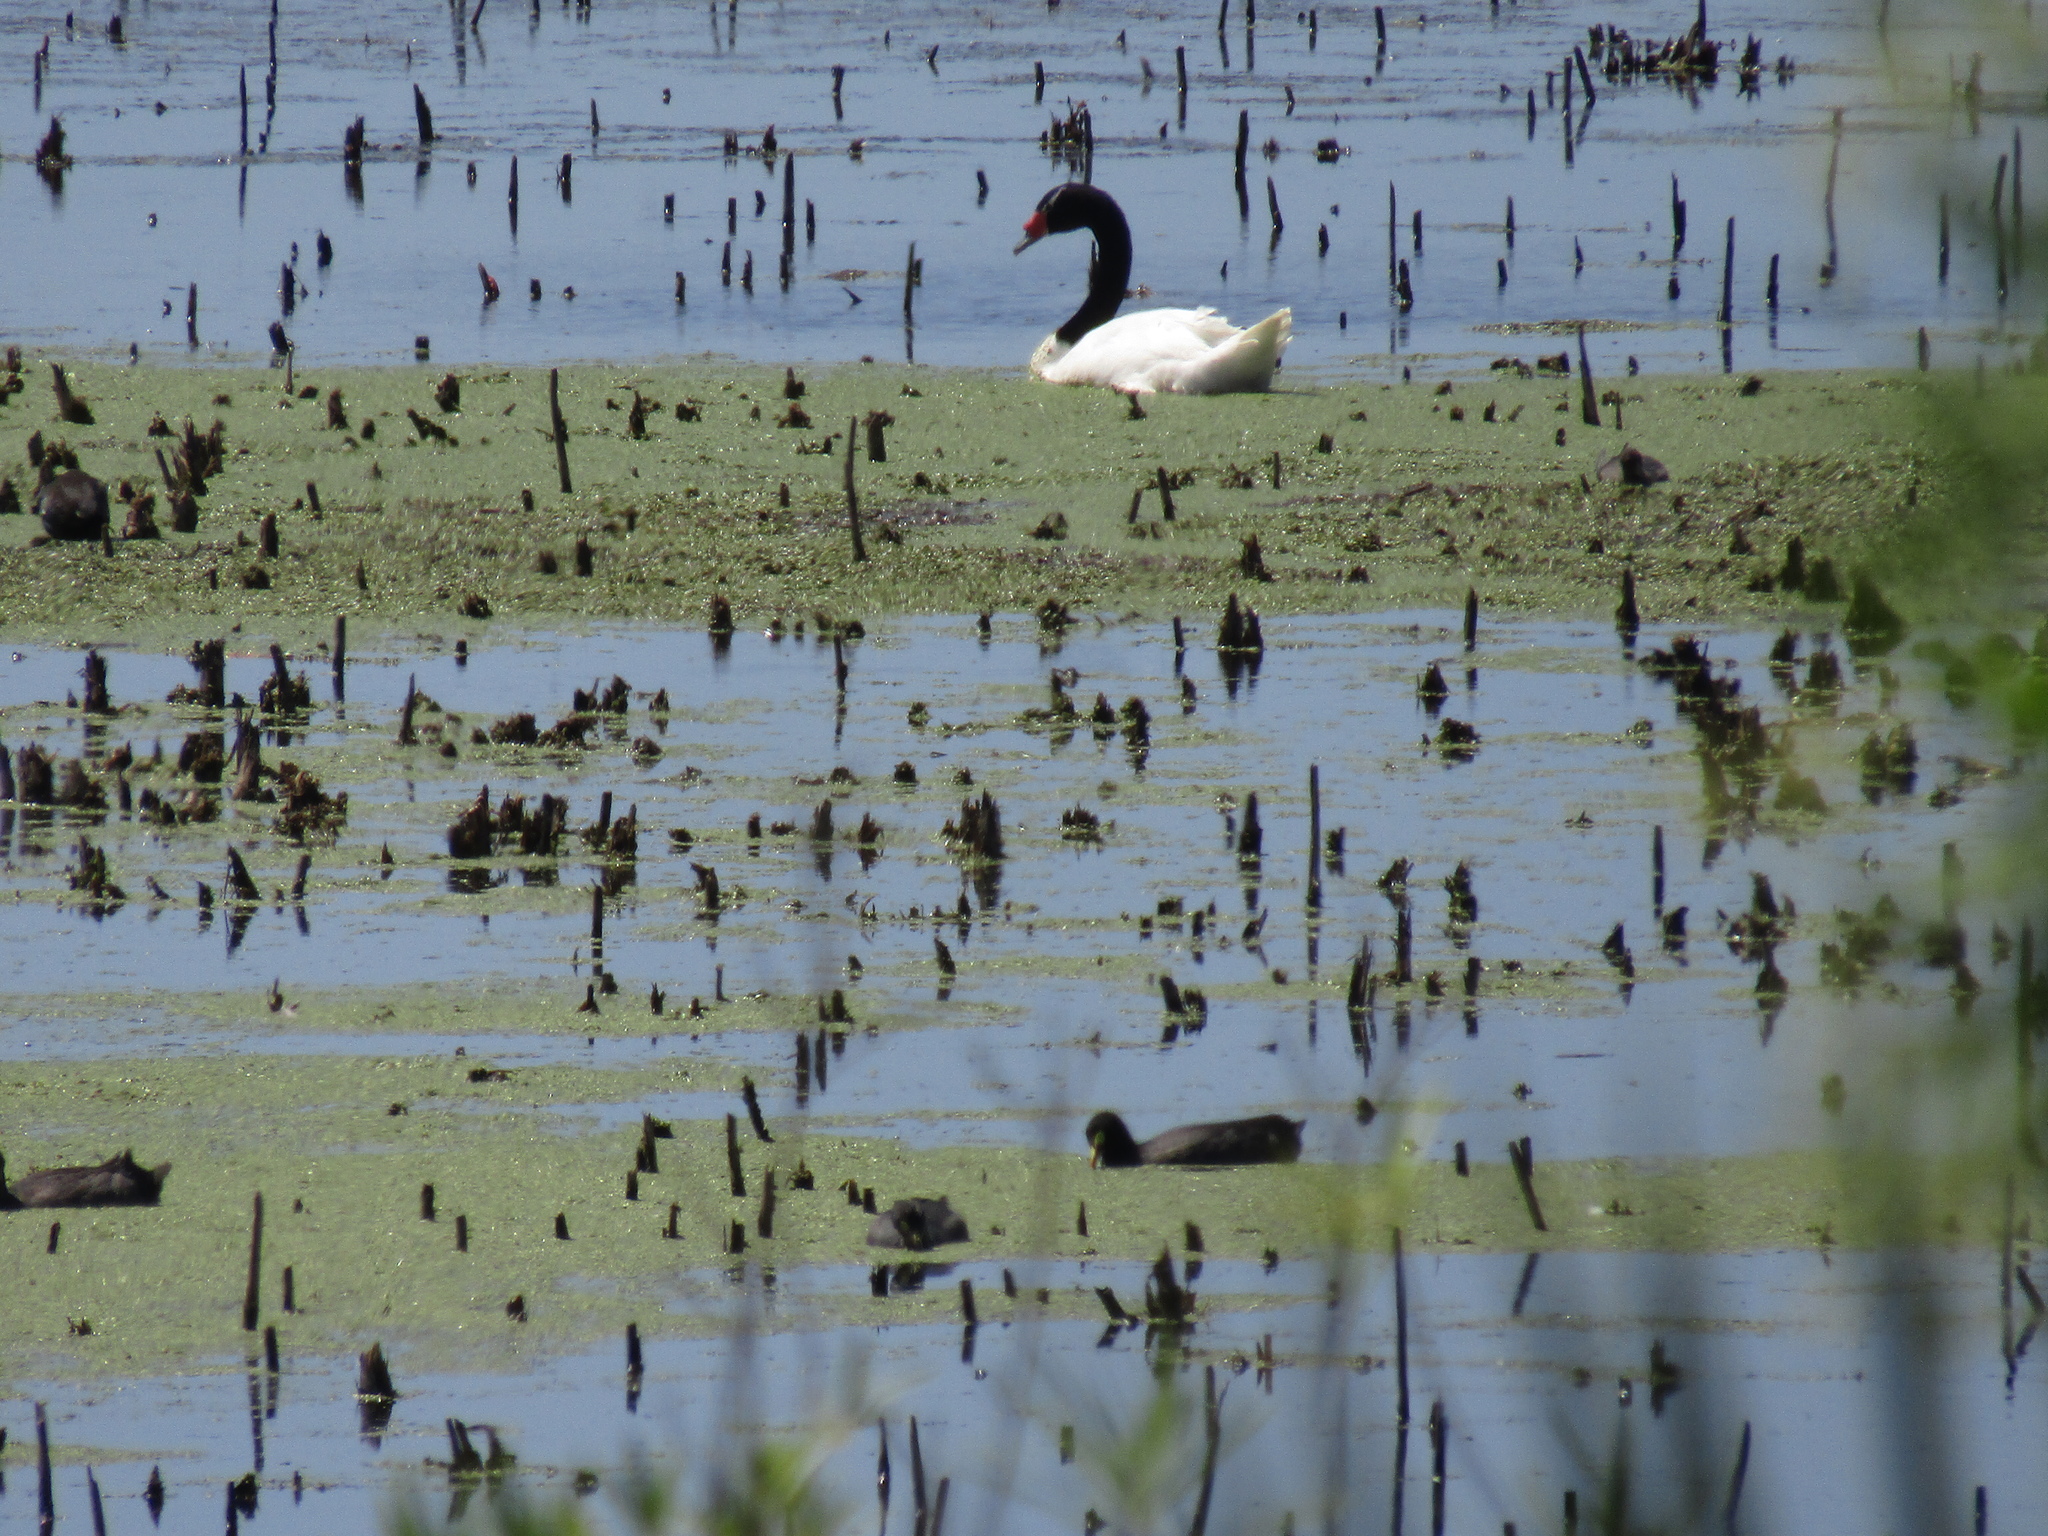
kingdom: Animalia
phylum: Chordata
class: Aves
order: Anseriformes
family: Anatidae
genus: Cygnus
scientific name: Cygnus melancoryphus
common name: Black-necked swan
